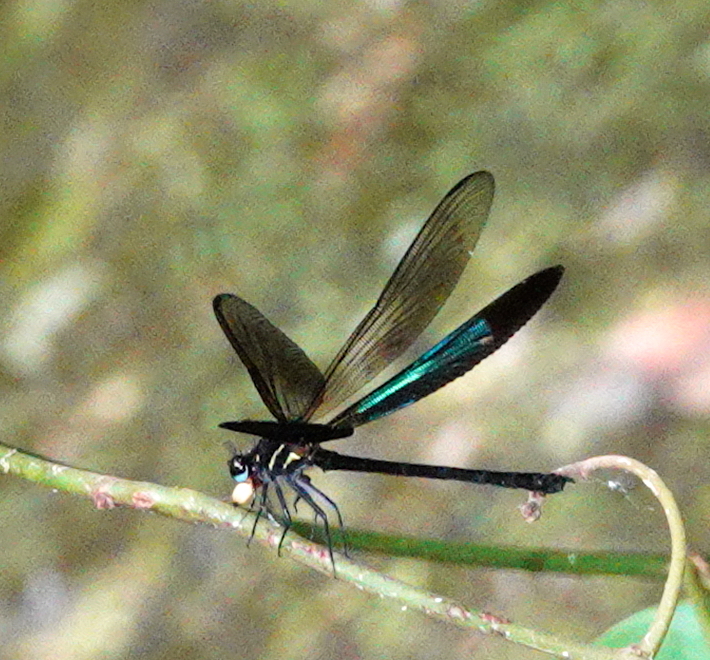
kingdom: Animalia
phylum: Arthropoda
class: Insecta
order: Odonata
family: Euphaeidae
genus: Euphaea
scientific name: Euphaea splendens
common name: Shining gossamerwing
